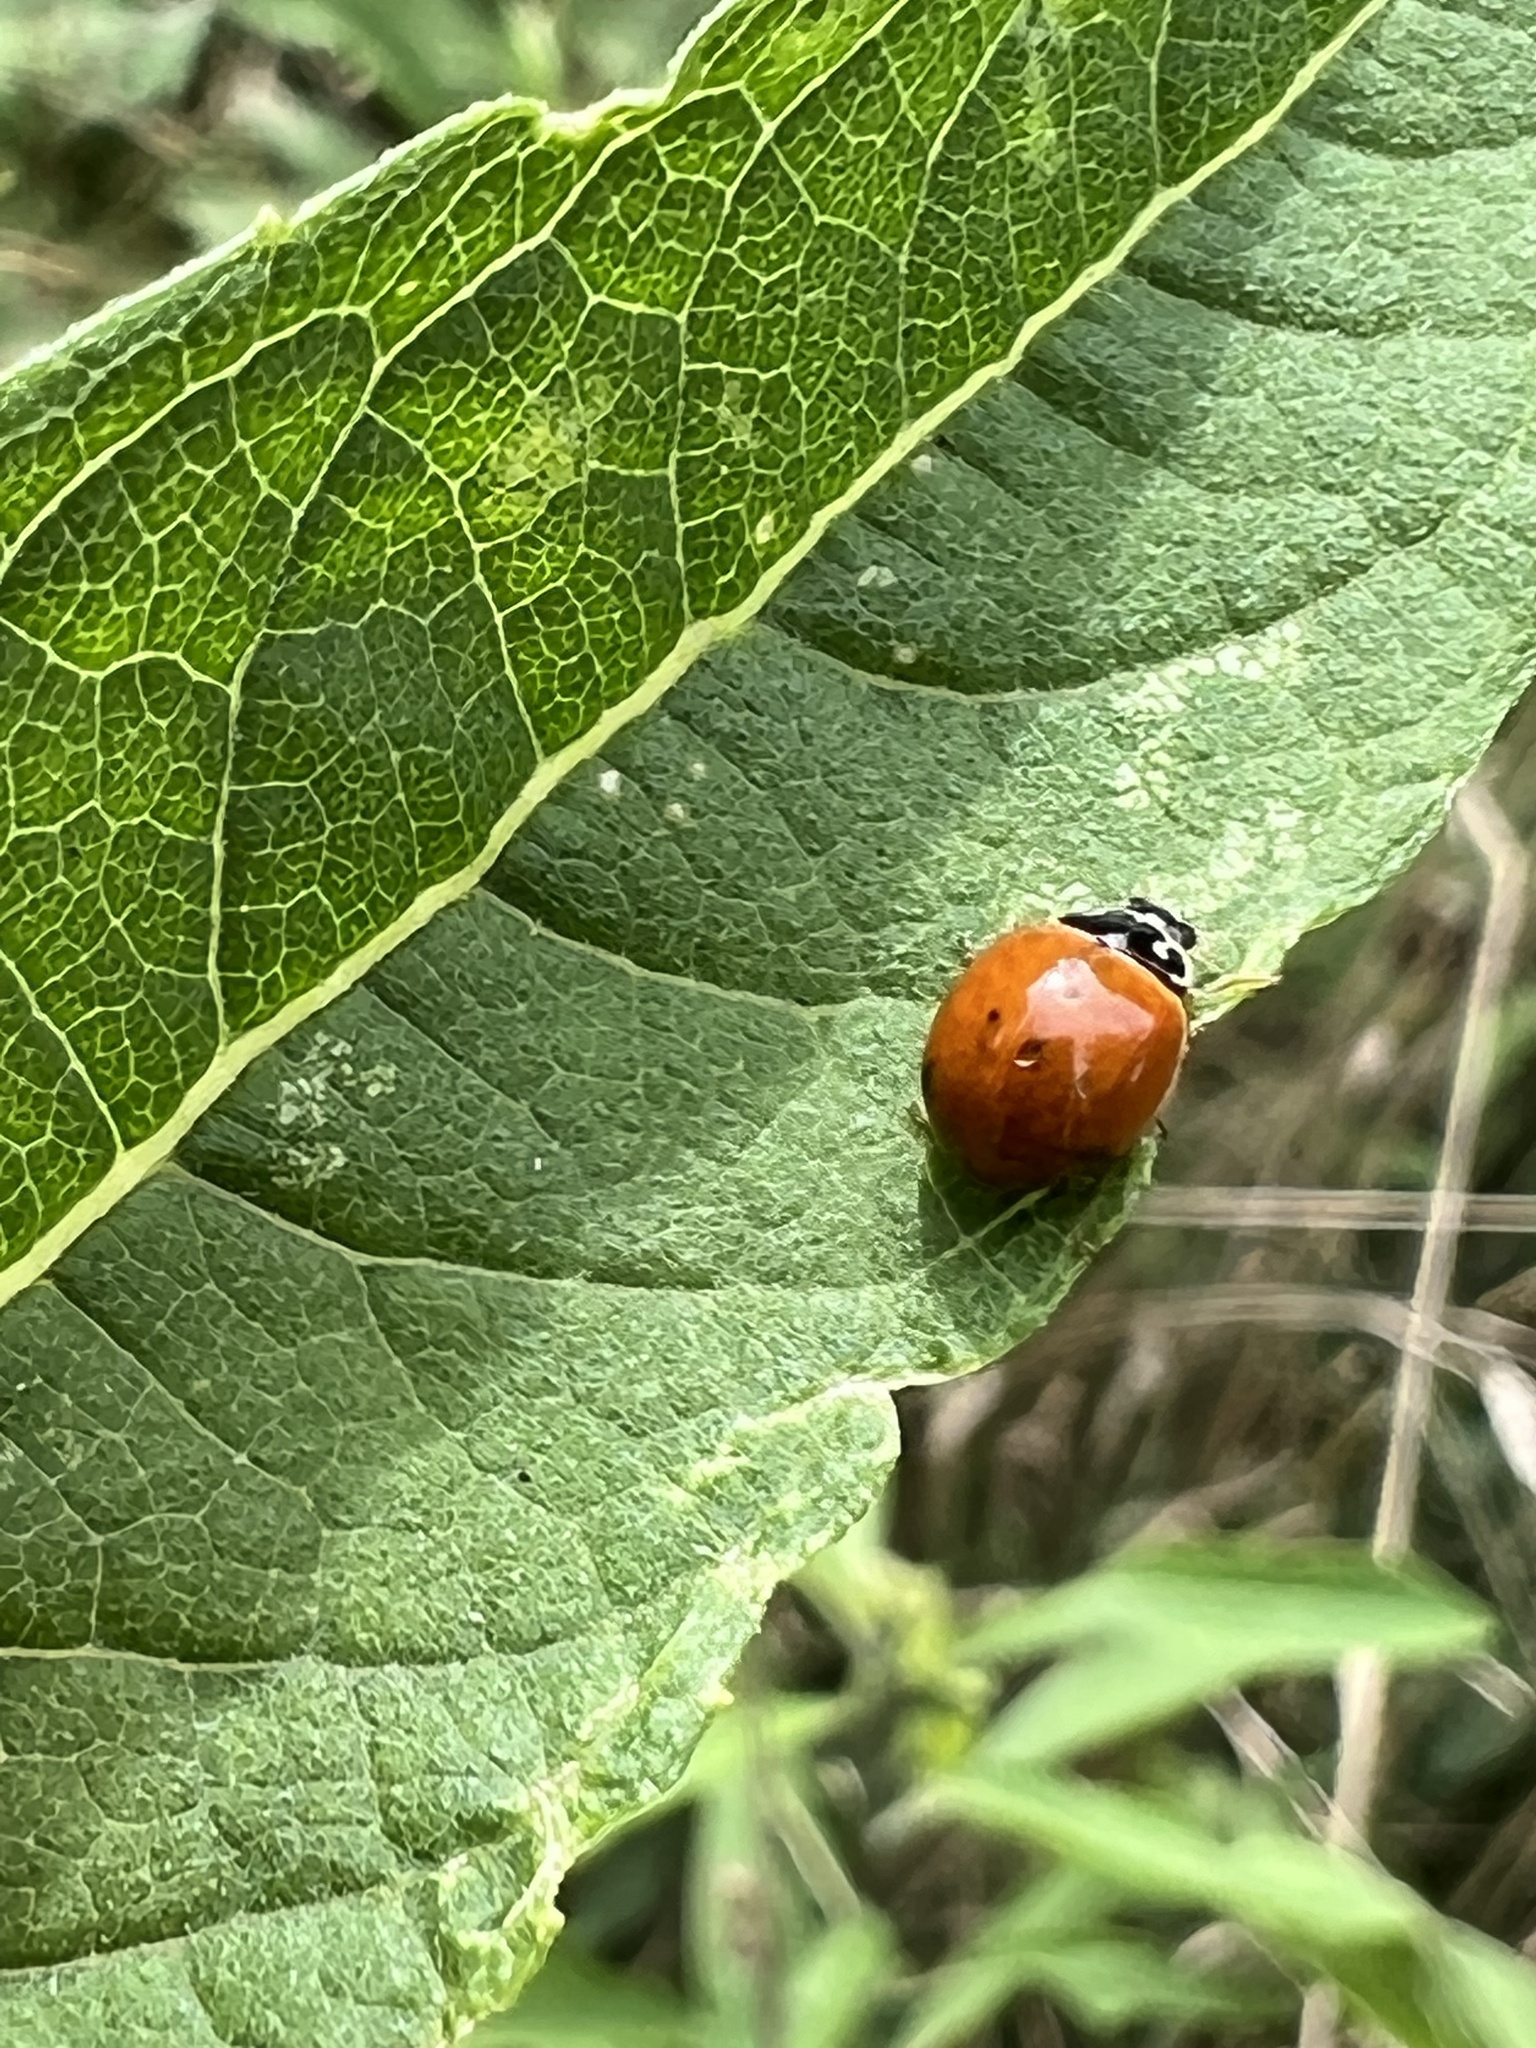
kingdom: Animalia
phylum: Arthropoda
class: Insecta
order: Coleoptera
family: Coccinellidae
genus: Cycloneda
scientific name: Cycloneda munda
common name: Polished lady beetle
